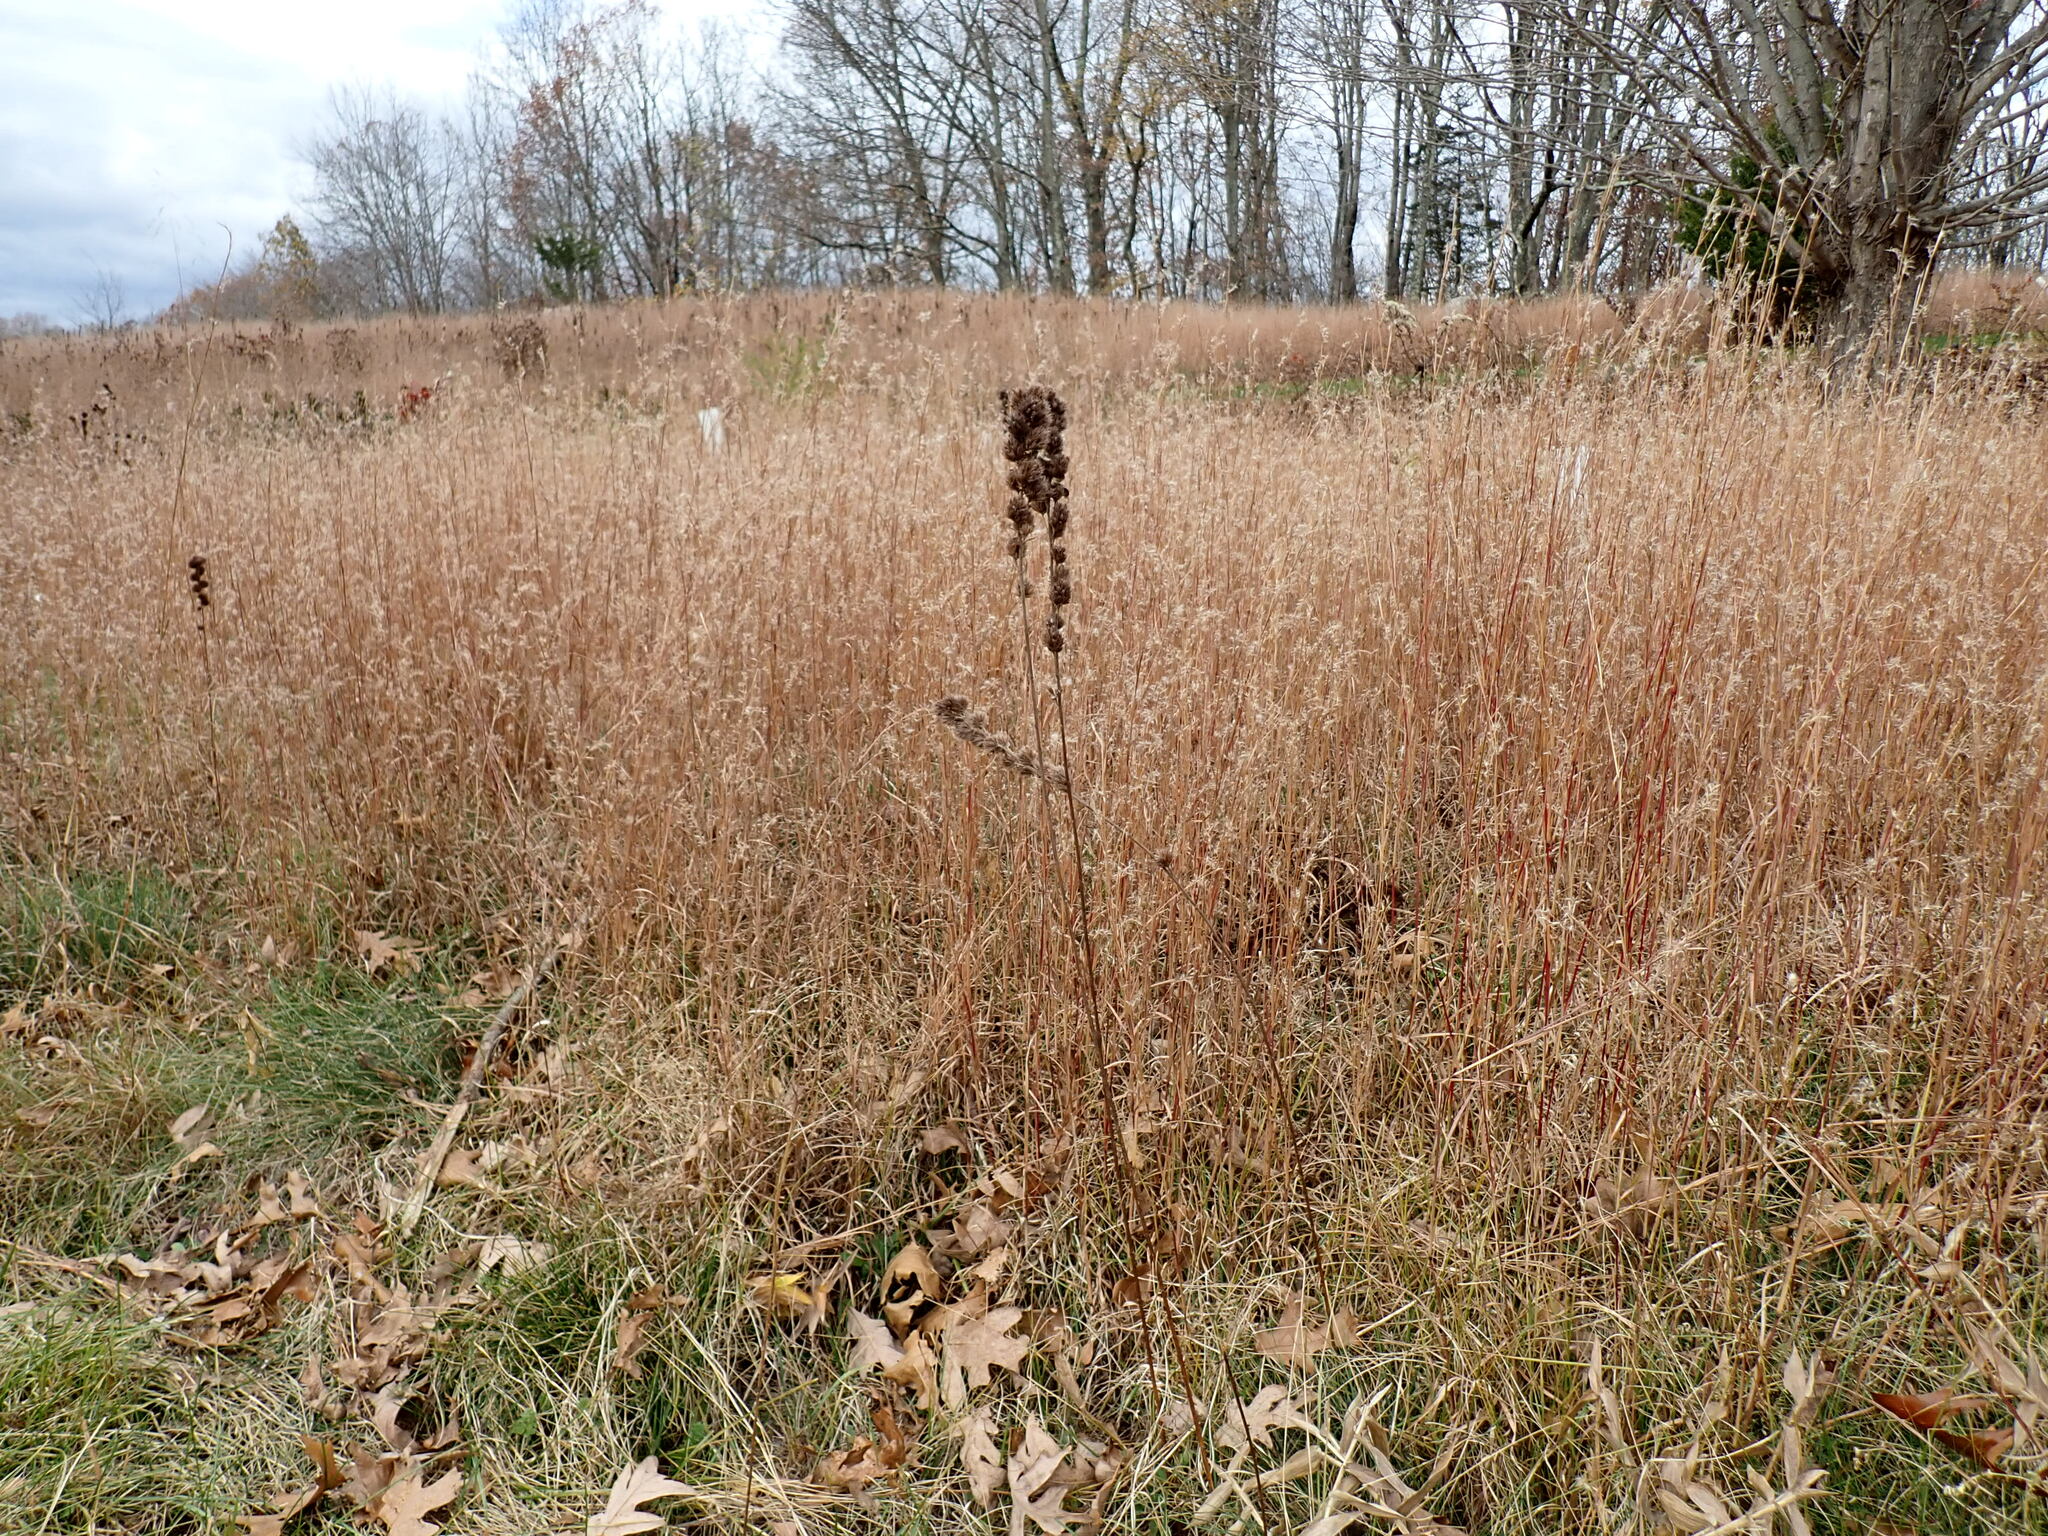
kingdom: Plantae
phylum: Tracheophyta
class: Magnoliopsida
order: Fabales
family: Fabaceae
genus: Lespedeza
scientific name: Lespedeza capitata
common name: Dusty clover
